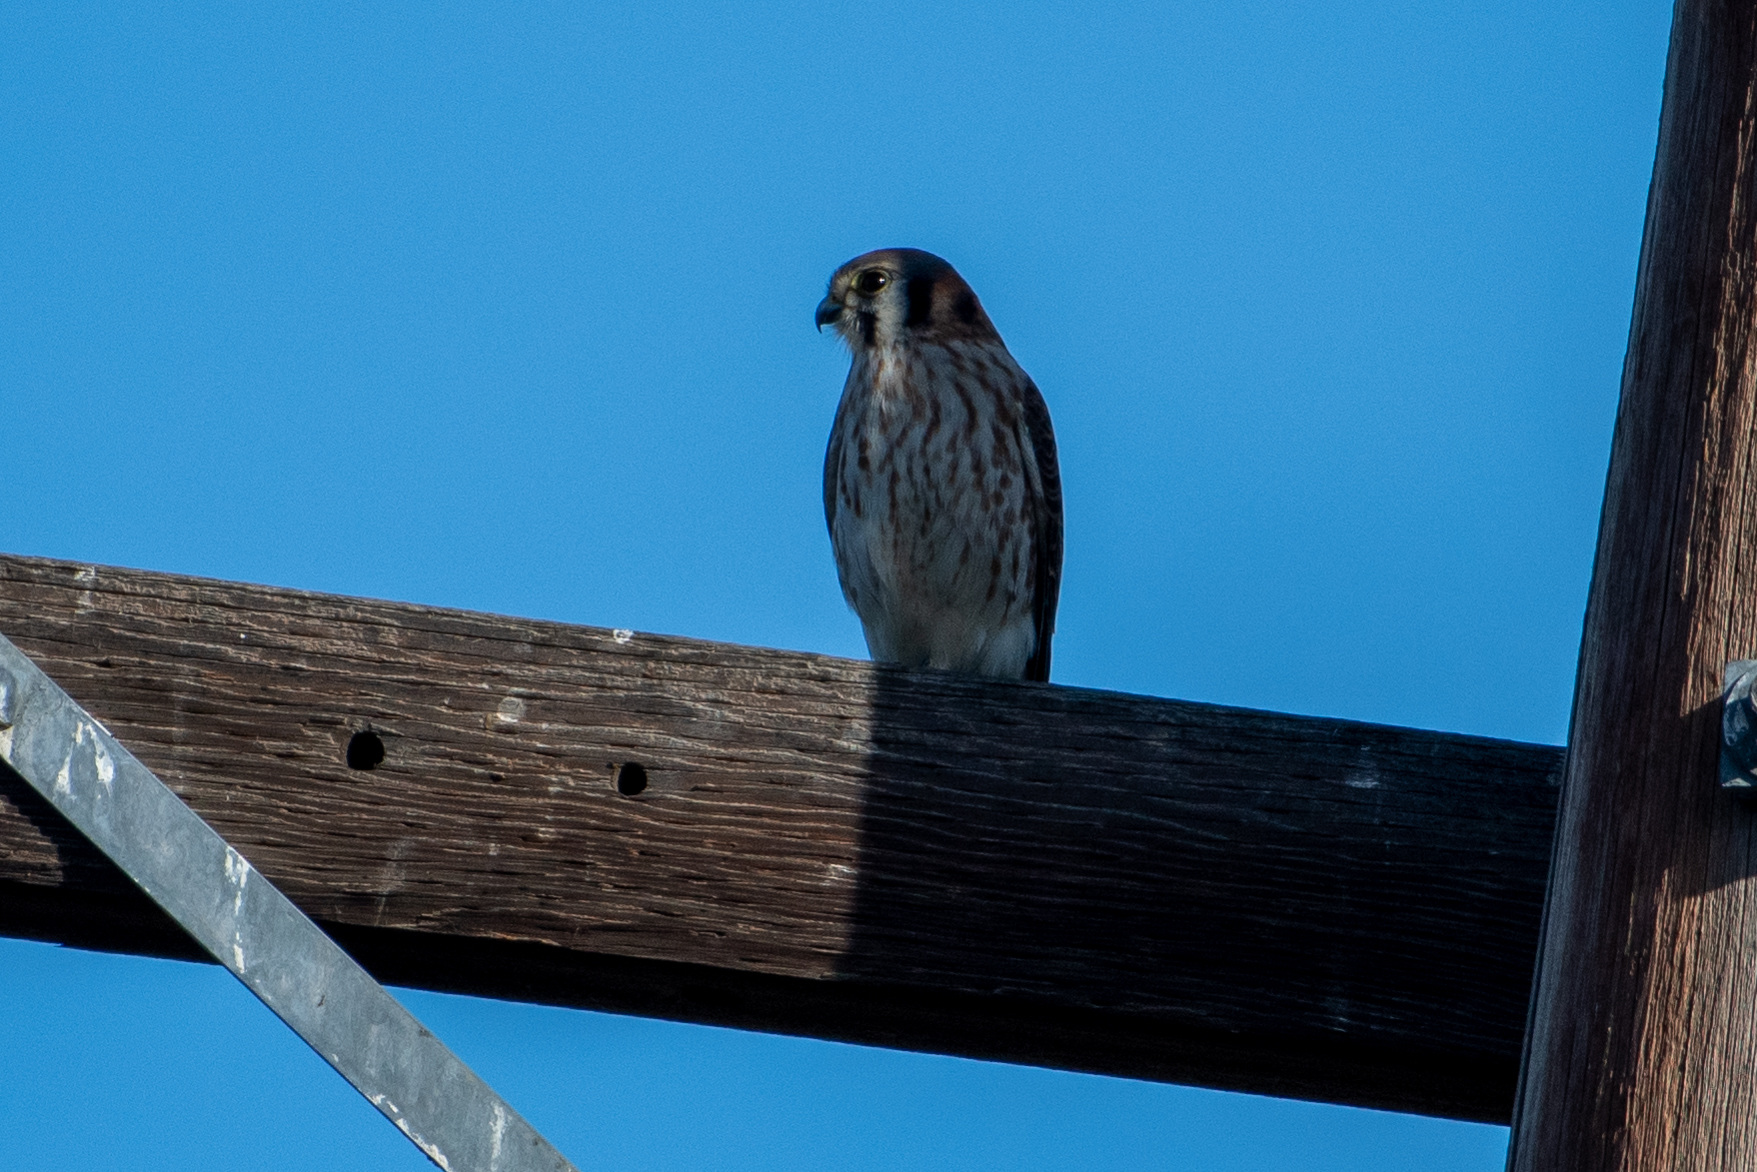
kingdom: Animalia
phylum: Chordata
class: Aves
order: Falconiformes
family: Falconidae
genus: Falco
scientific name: Falco sparverius
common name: American kestrel
